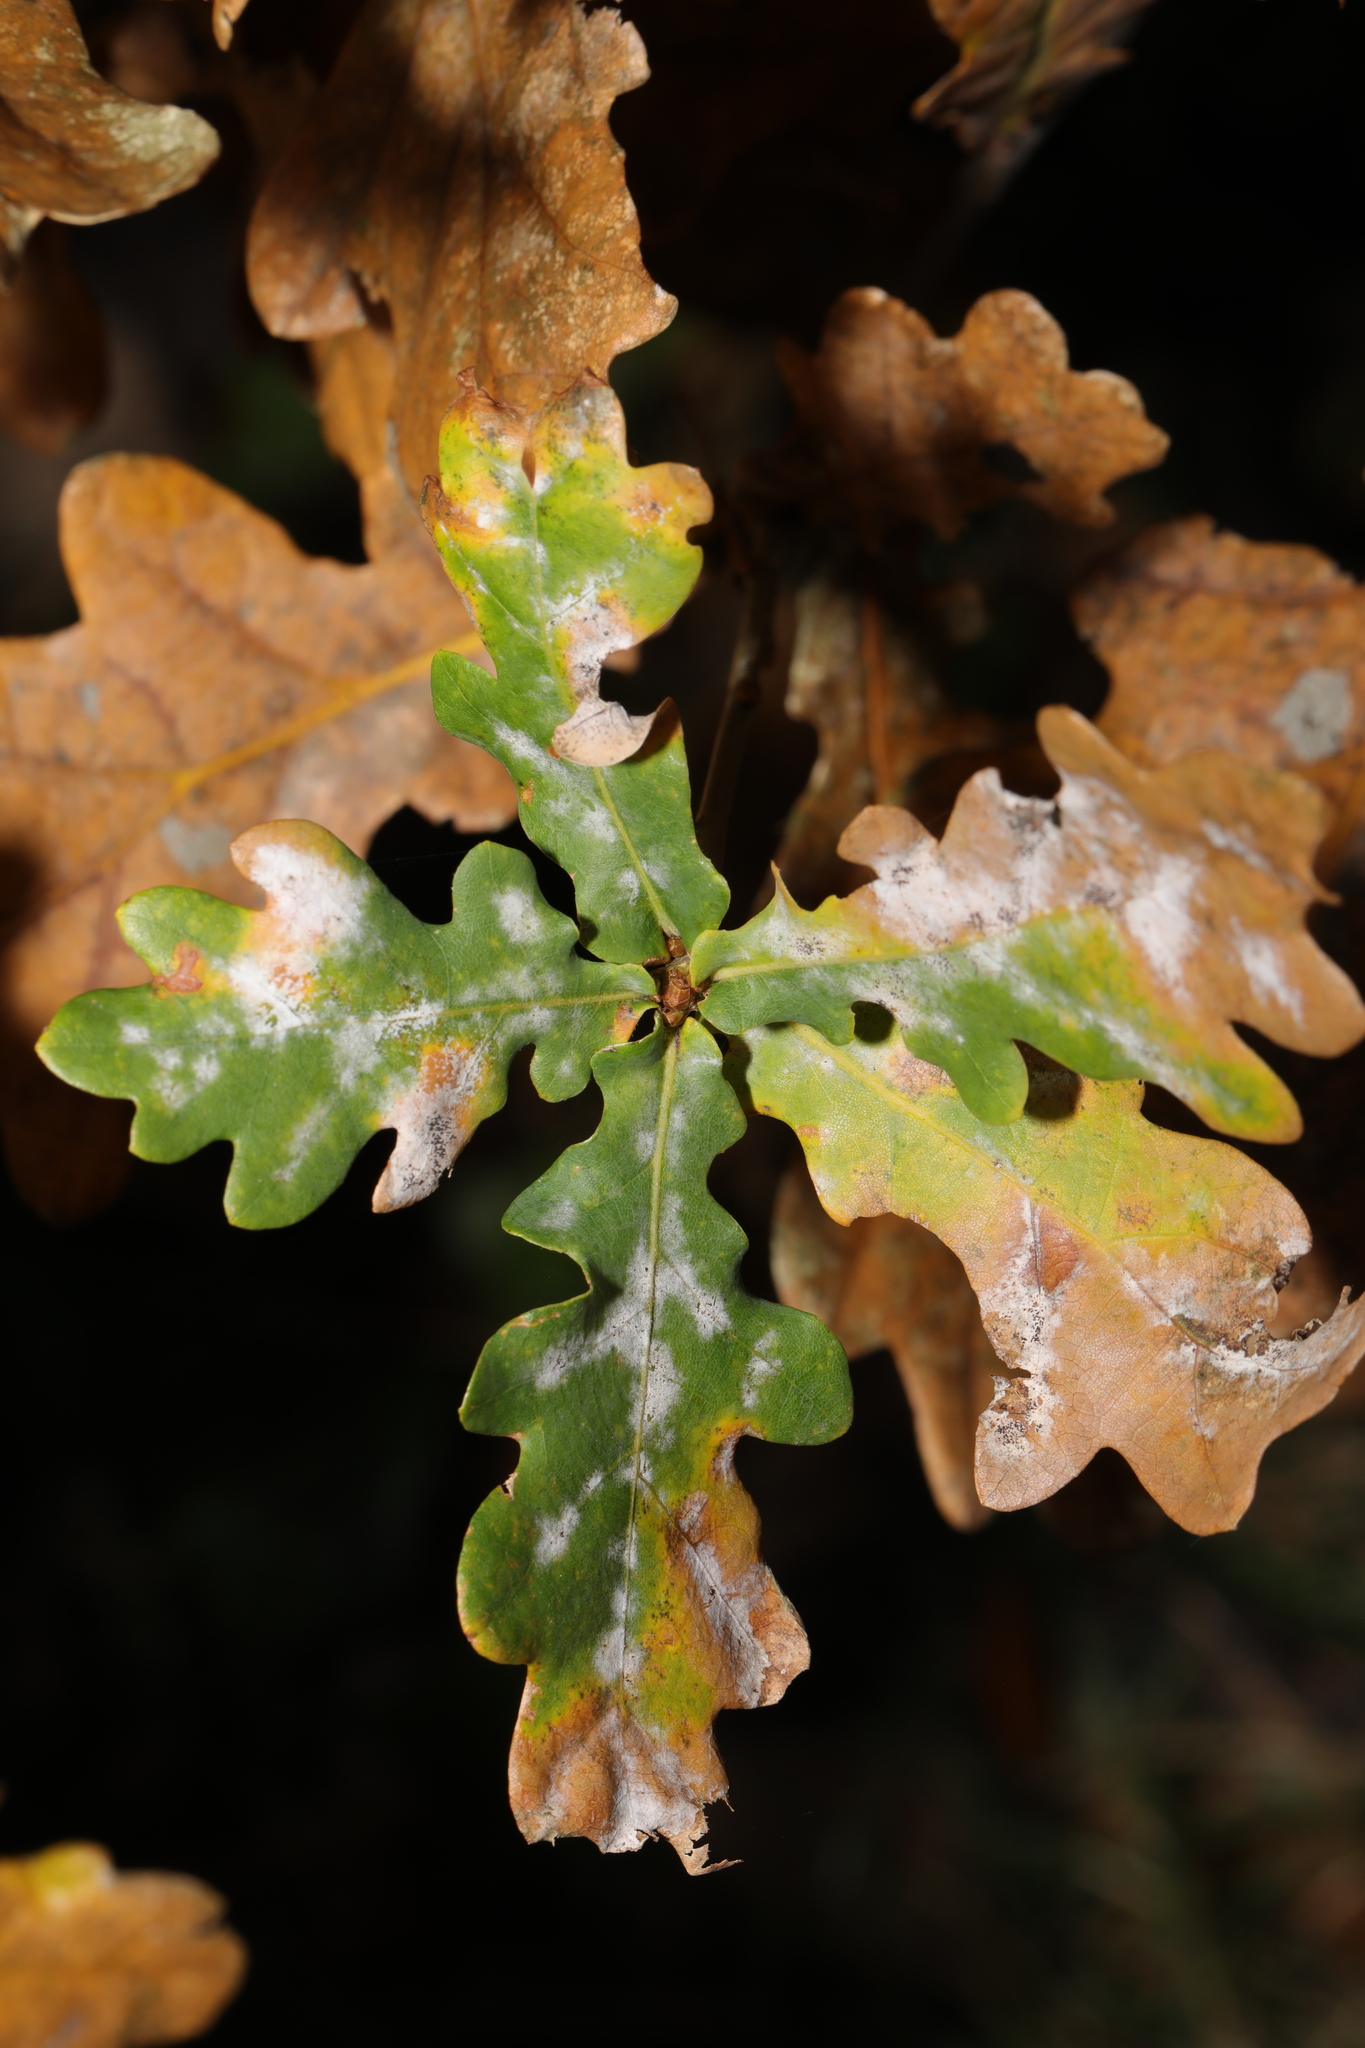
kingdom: Fungi
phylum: Ascomycota
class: Leotiomycetes
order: Helotiales
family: Erysiphaceae
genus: Erysiphe
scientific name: Erysiphe alphitoides
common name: Oak mildew
